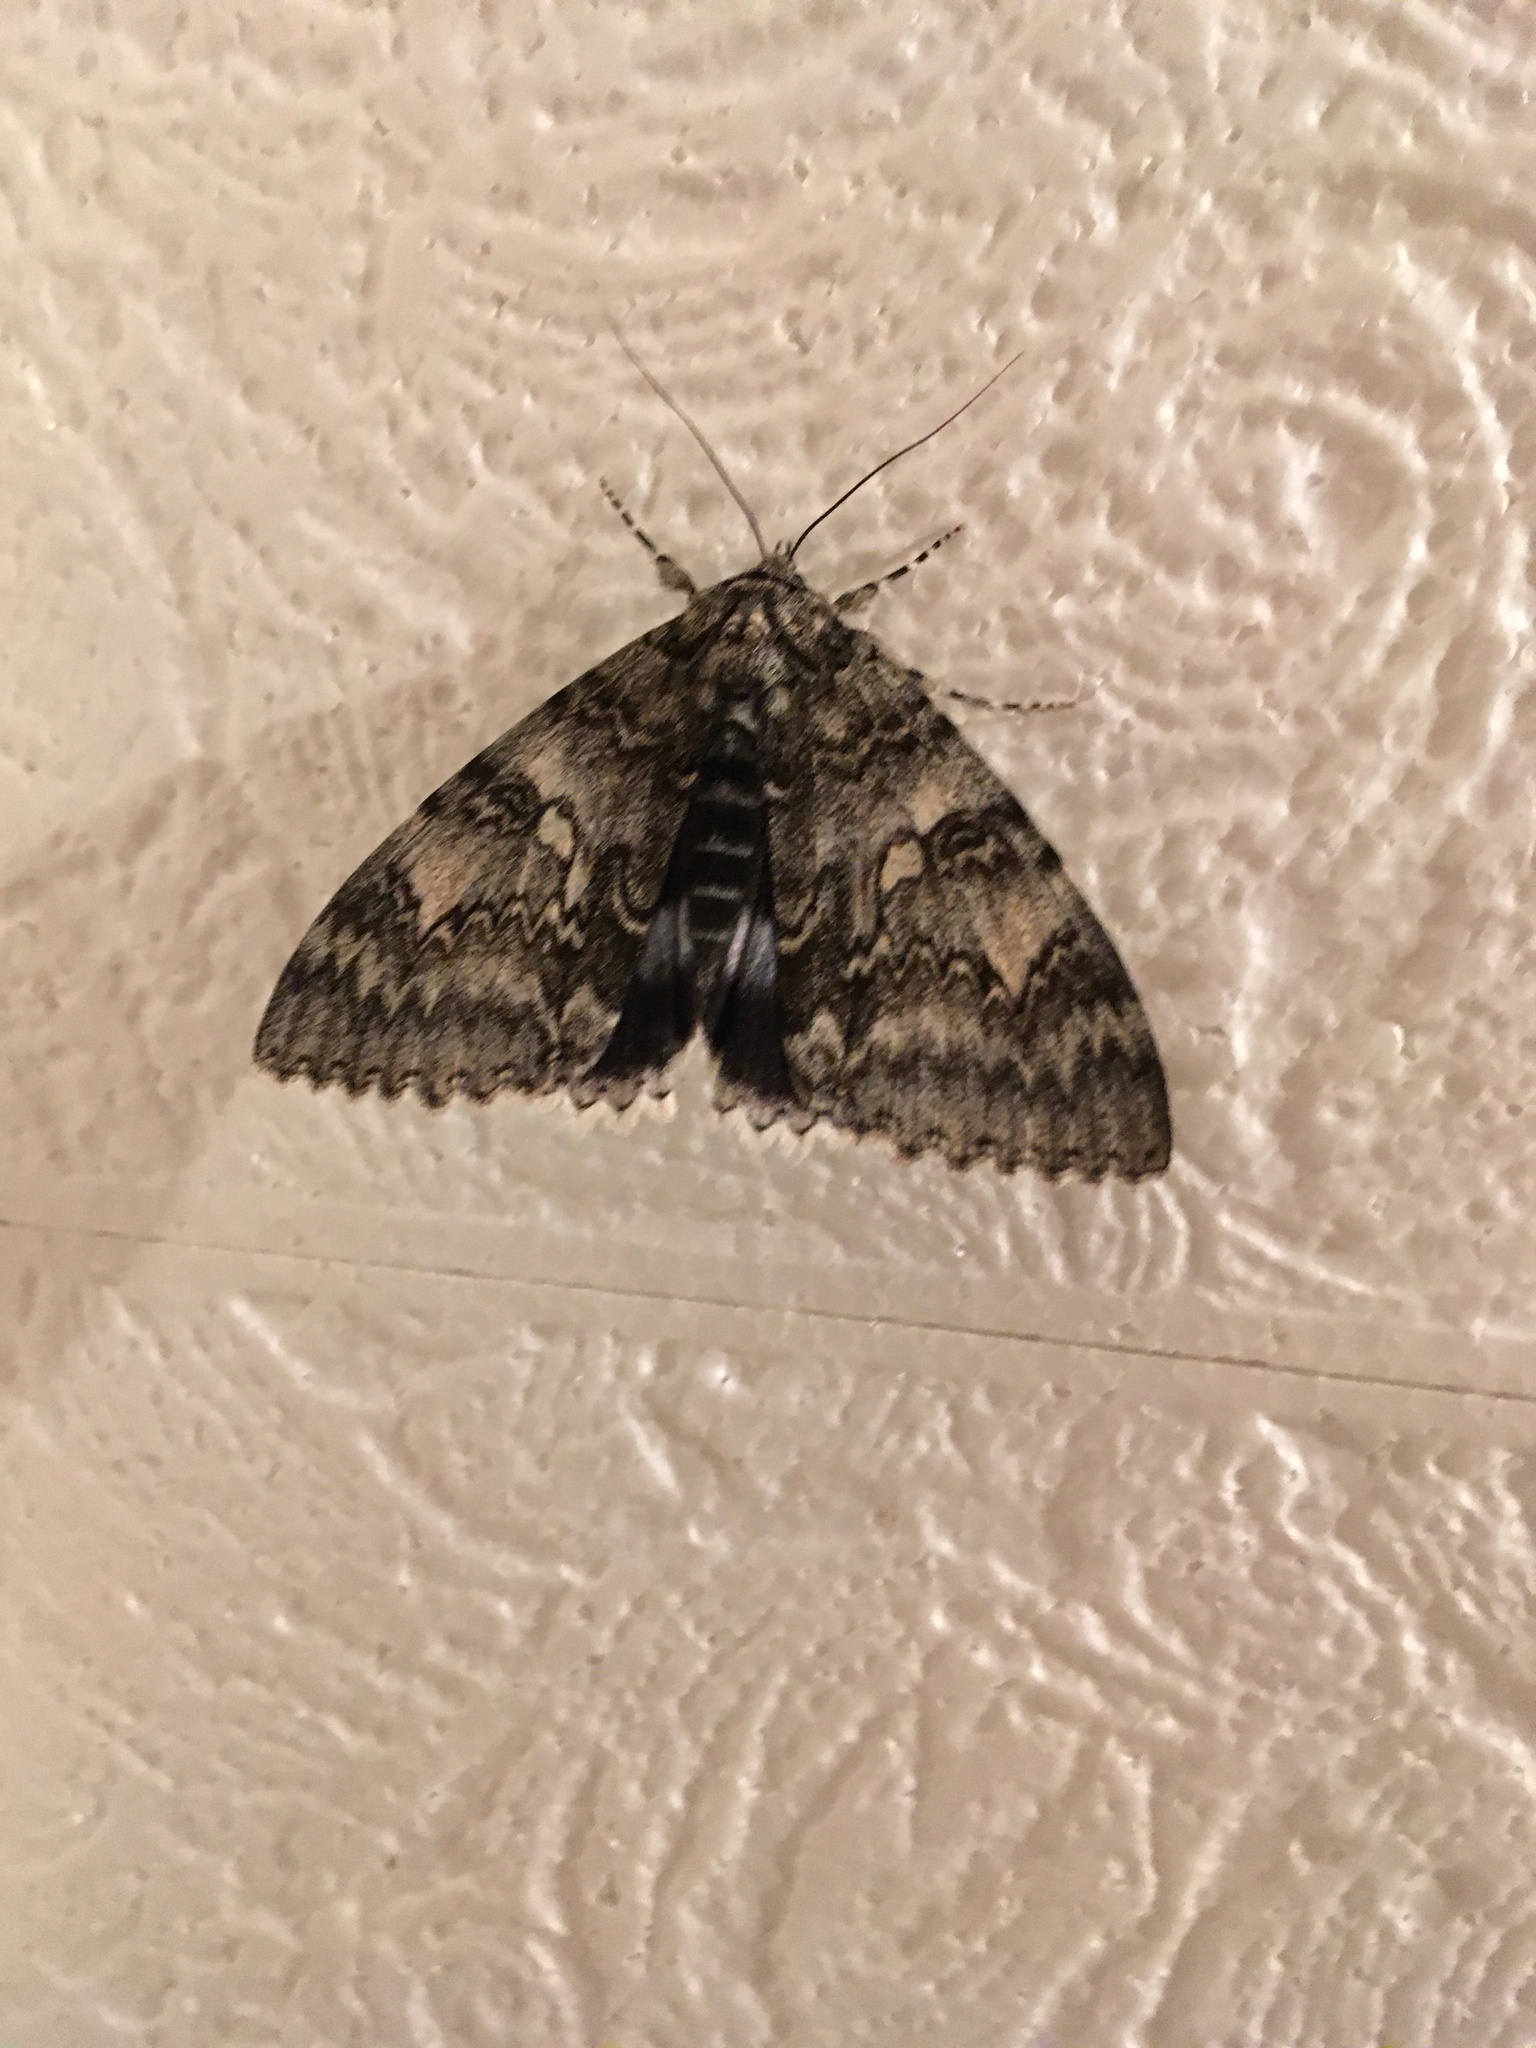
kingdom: Animalia
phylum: Arthropoda
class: Insecta
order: Lepidoptera
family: Erebidae
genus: Catocala
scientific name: Catocala fraxini
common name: Clifden nonpareil
